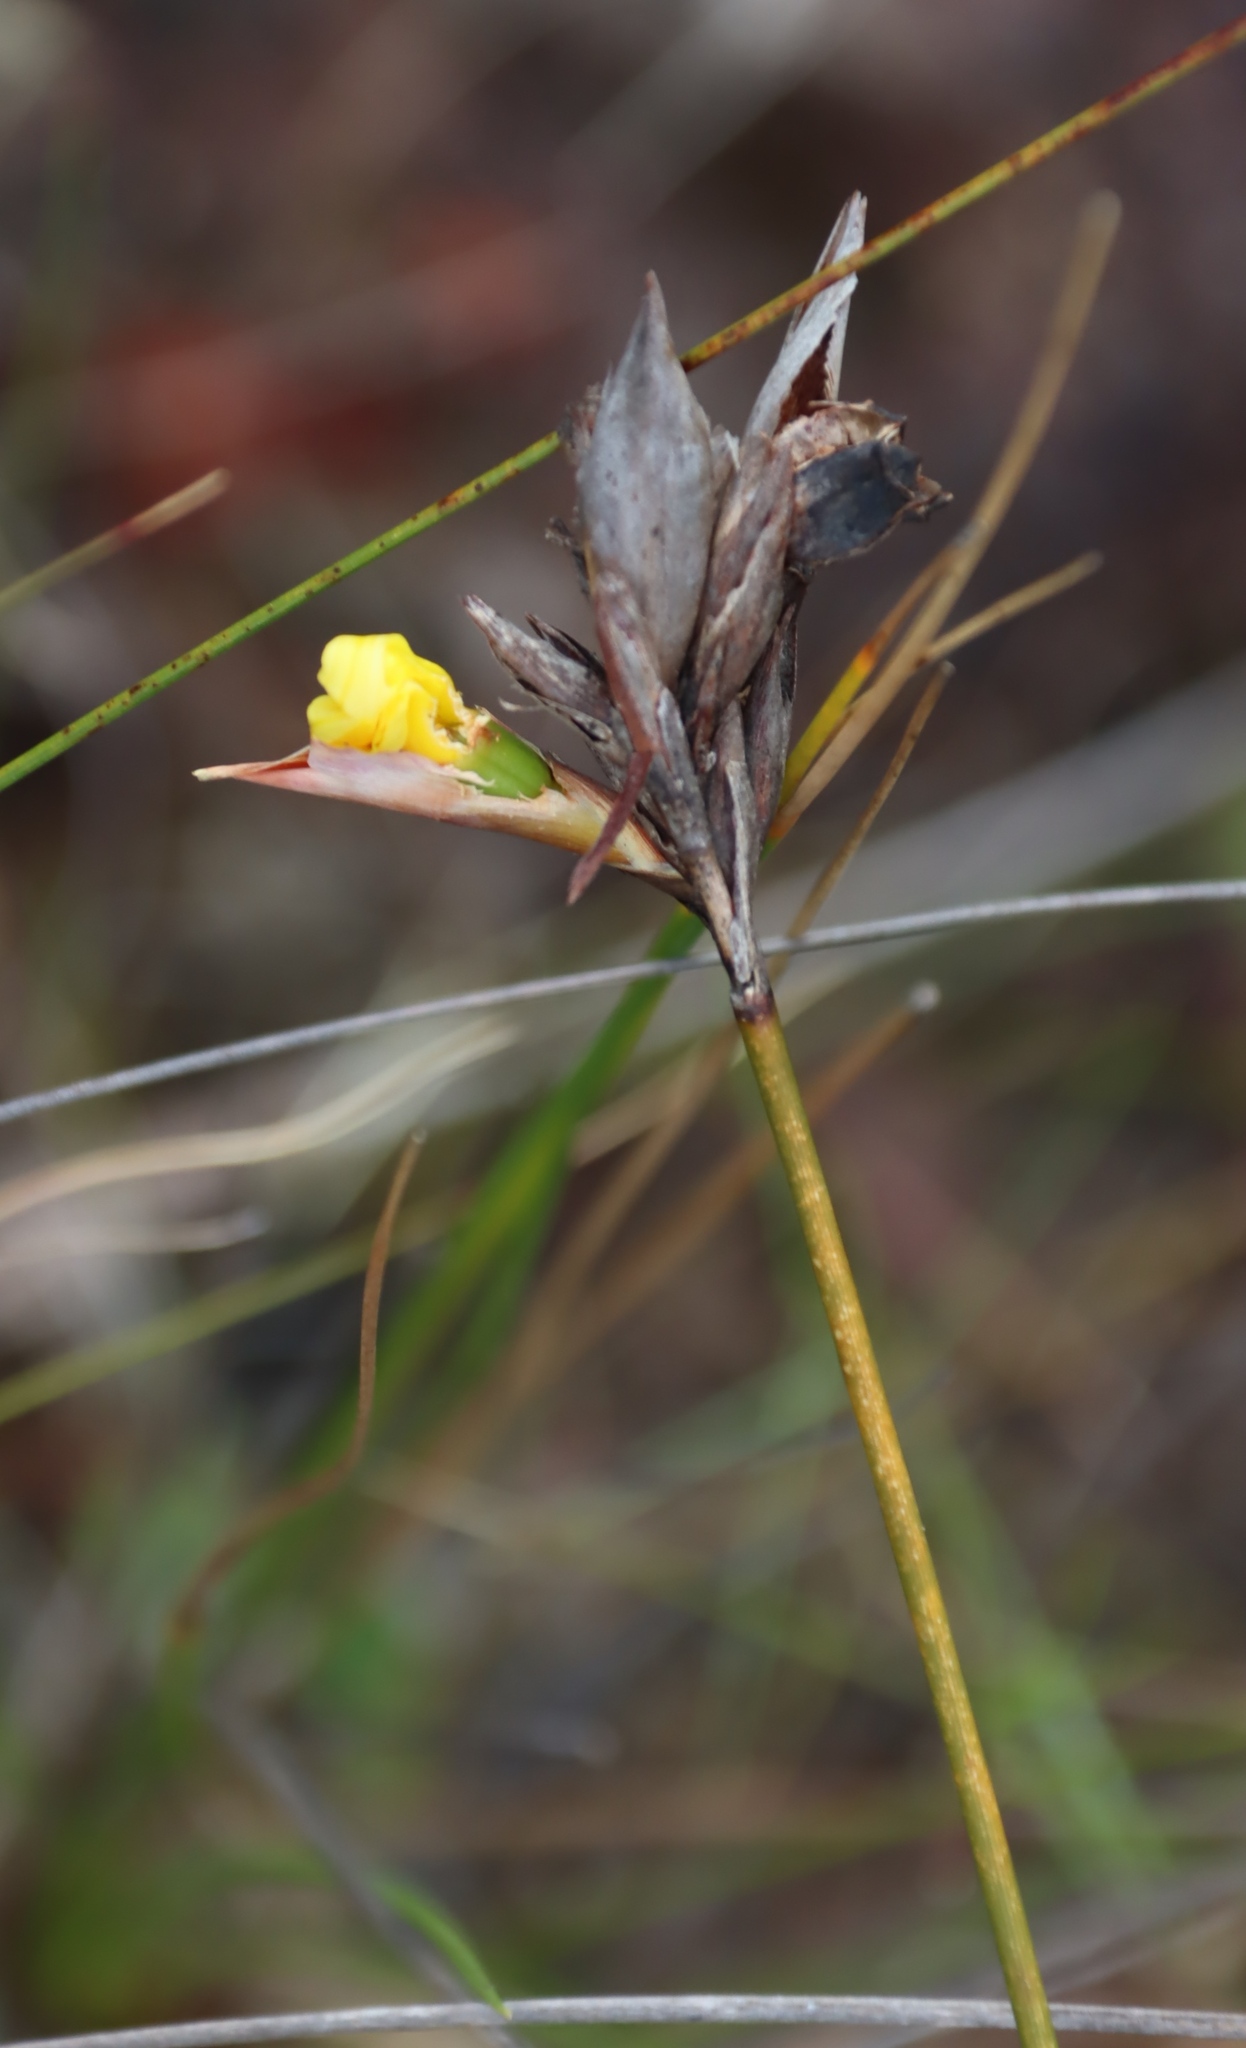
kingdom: Plantae
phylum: Tracheophyta
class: Liliopsida
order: Asparagales
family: Iridaceae
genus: Bobartia
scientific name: Bobartia macrospatha
